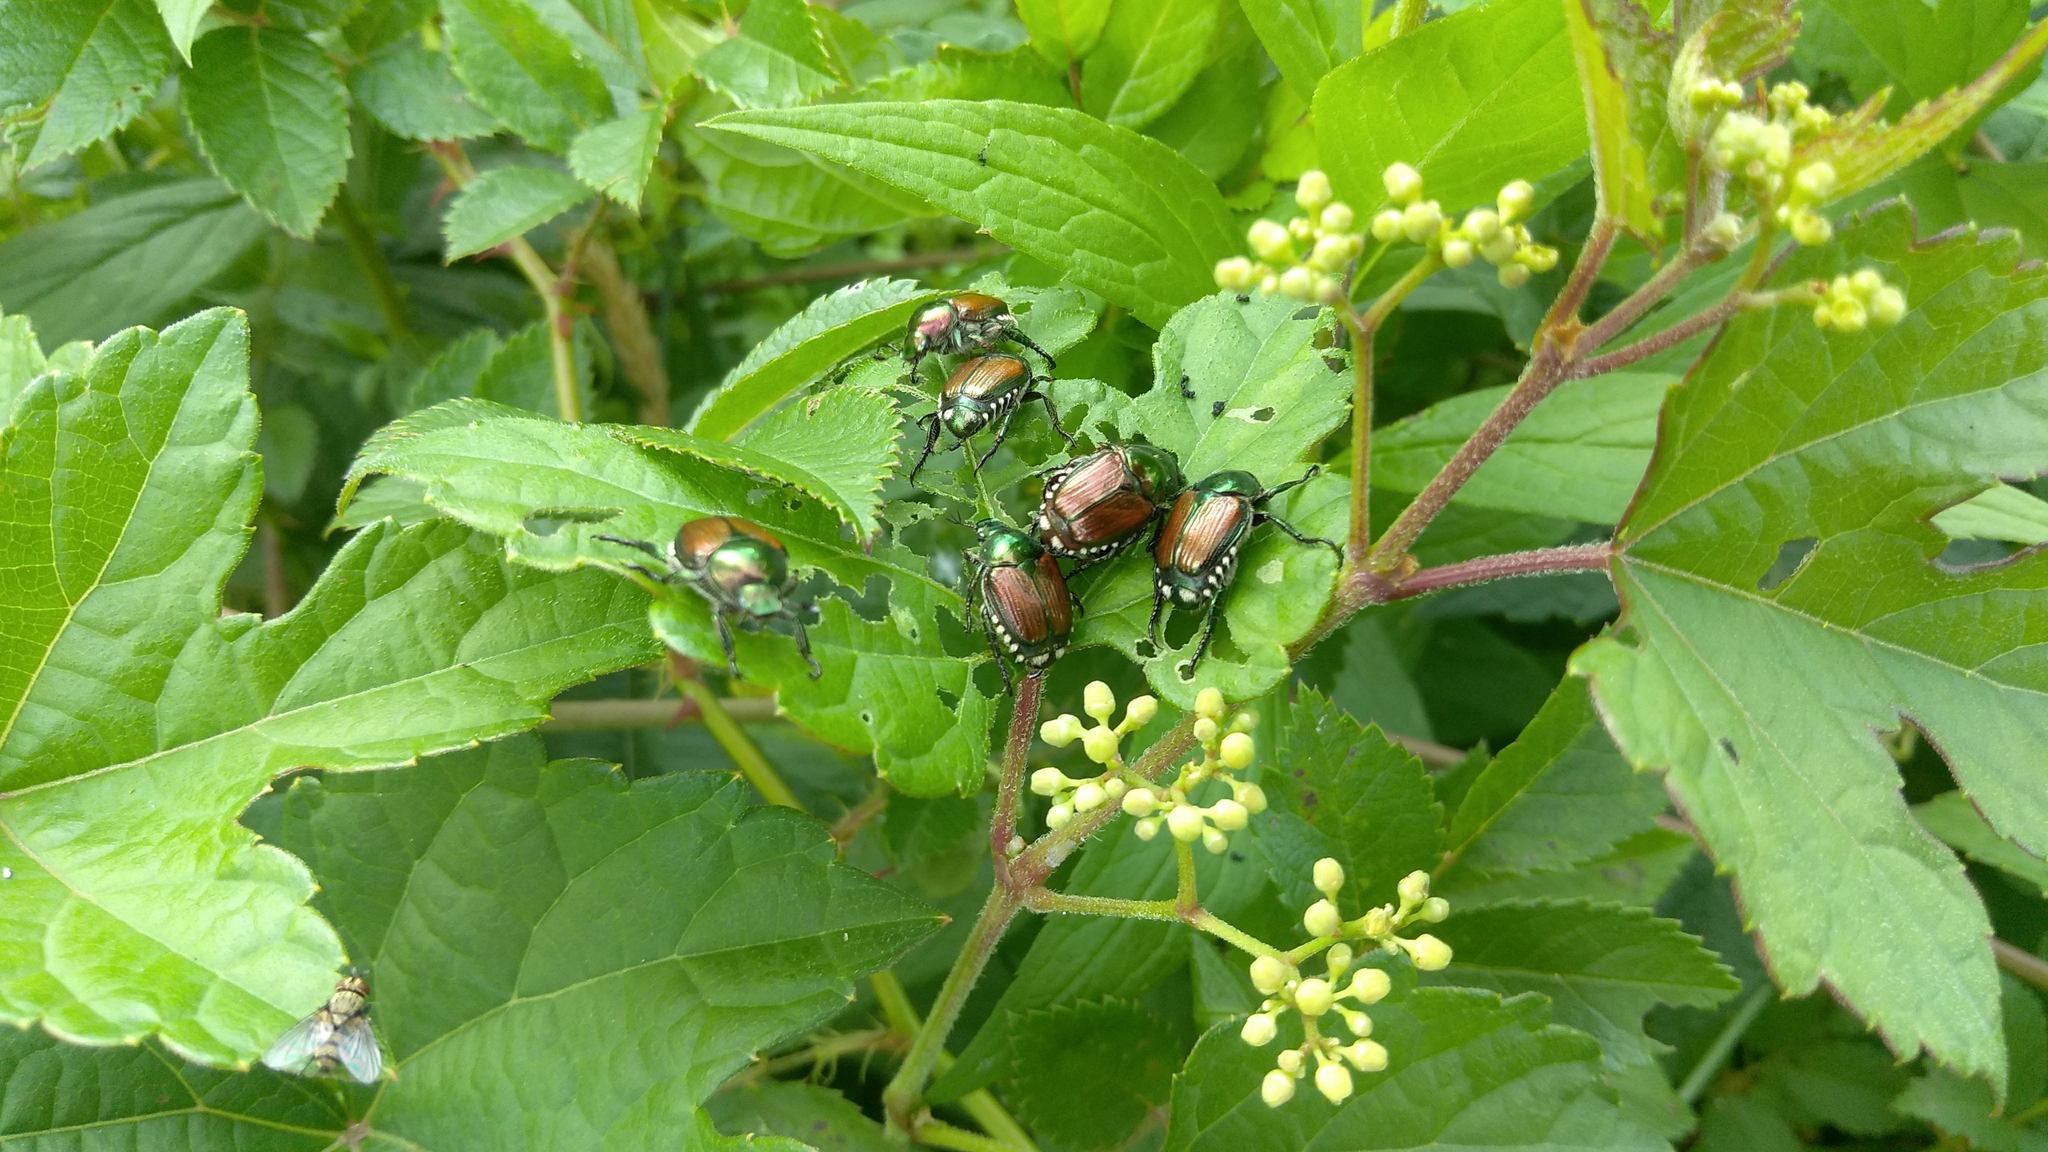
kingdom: Animalia
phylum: Arthropoda
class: Insecta
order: Coleoptera
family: Scarabaeidae
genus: Popillia
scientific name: Popillia japonica
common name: Japanese beetle
